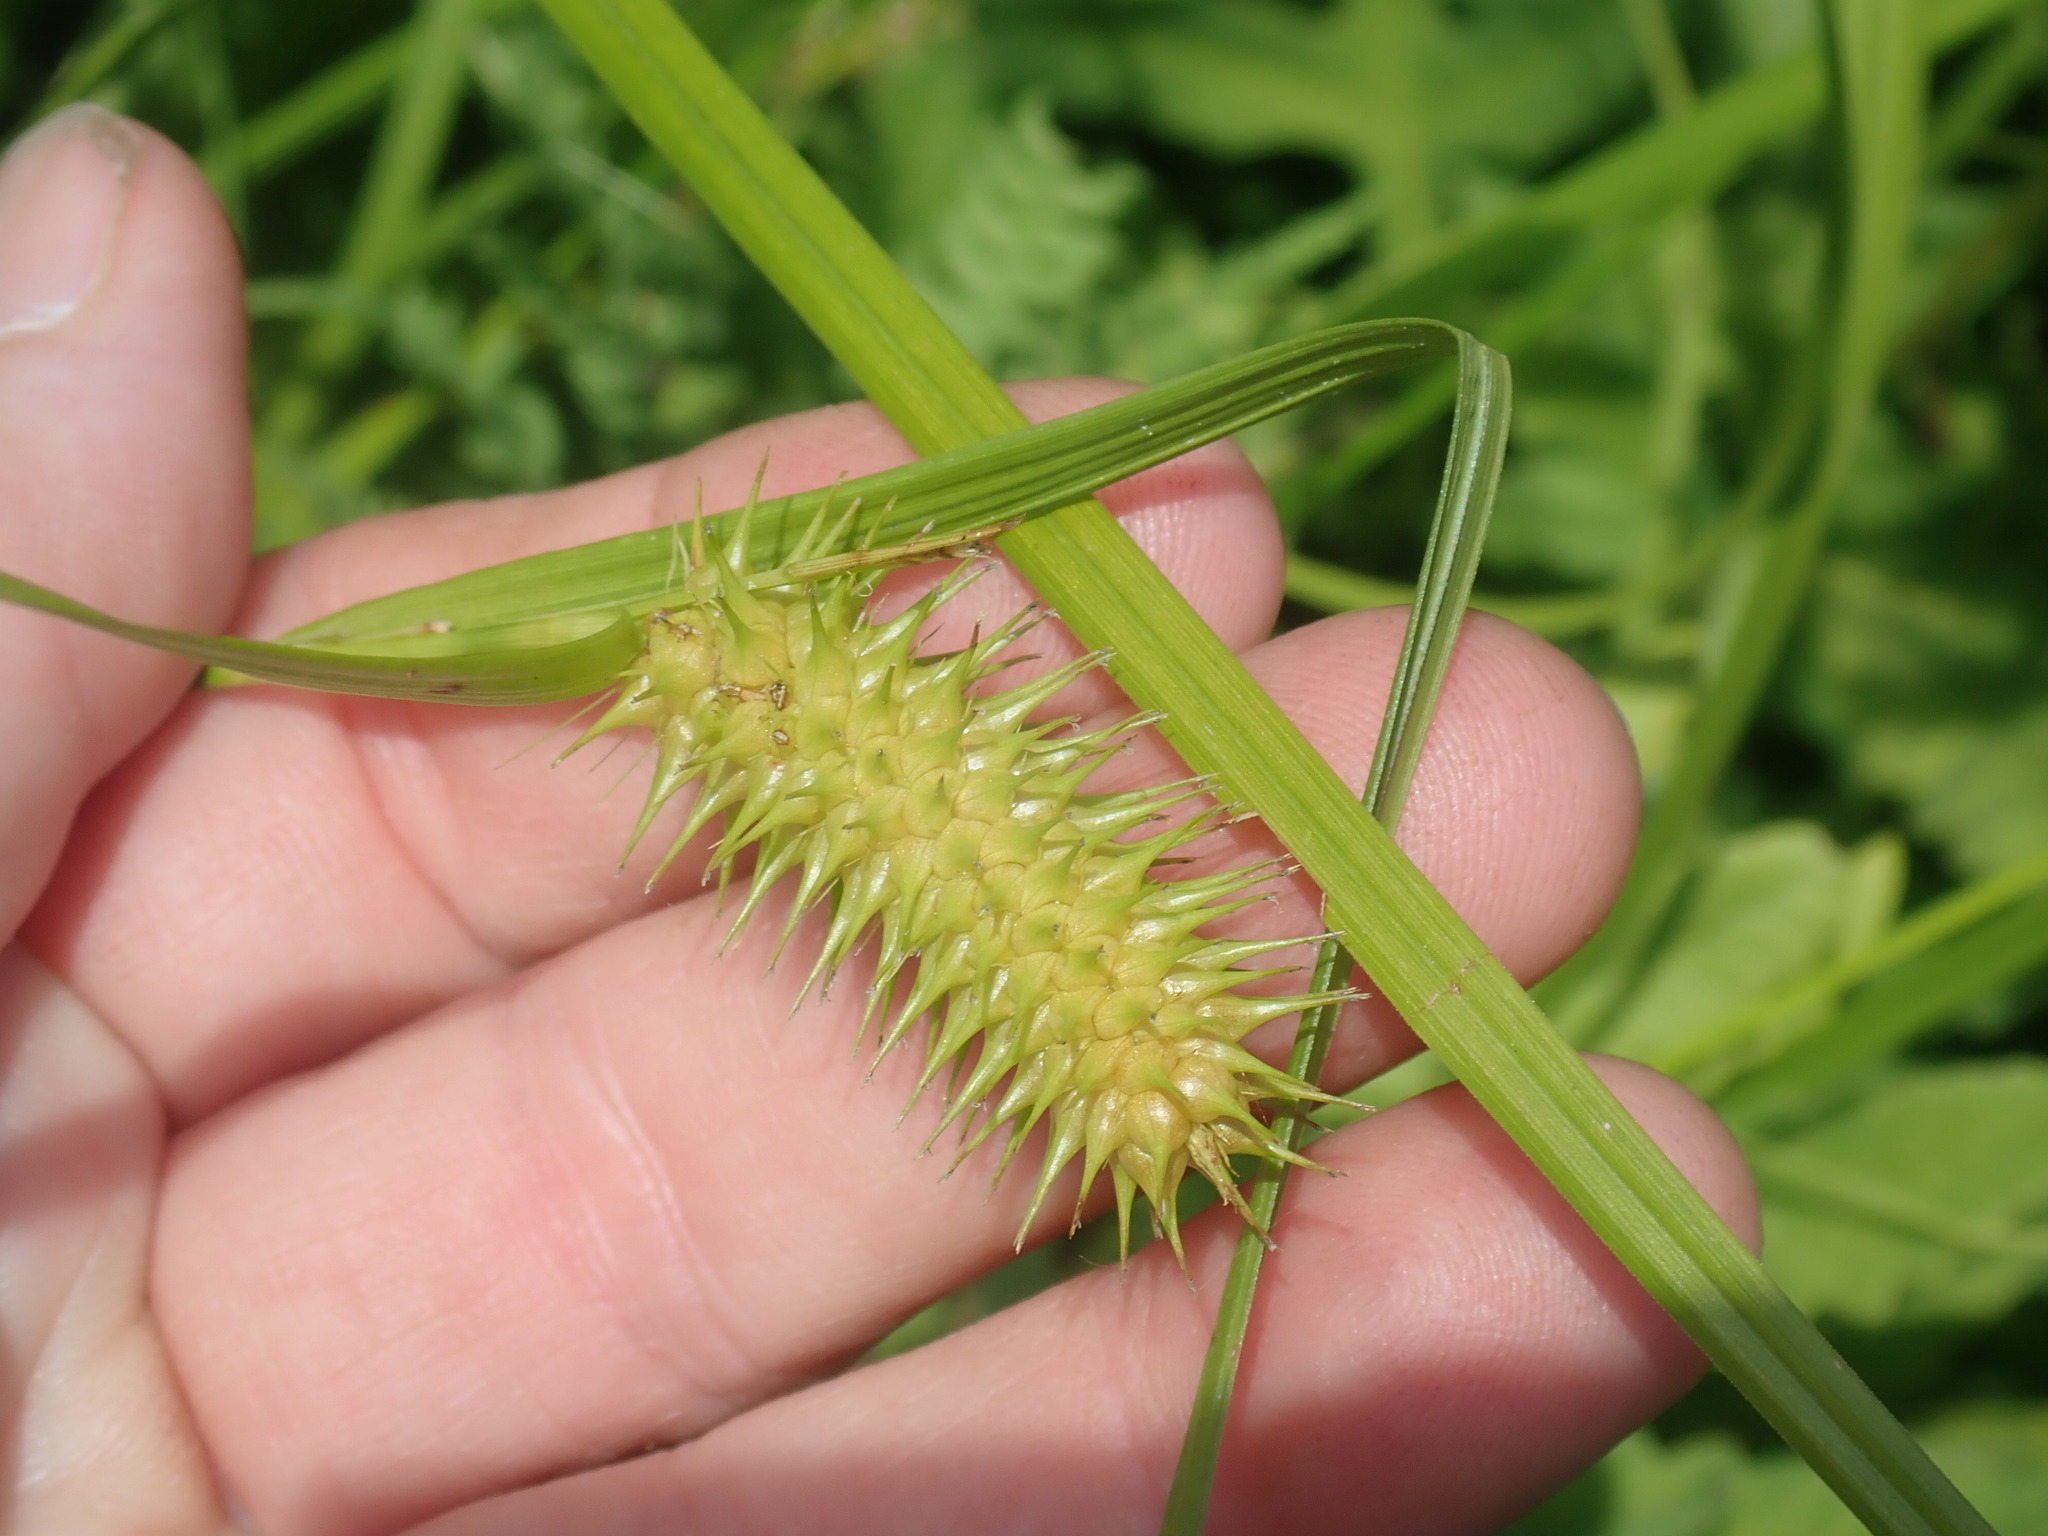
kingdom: Plantae
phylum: Tracheophyta
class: Liliopsida
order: Poales
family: Cyperaceae
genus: Carex
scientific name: Carex lurida
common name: Sallow sedge
